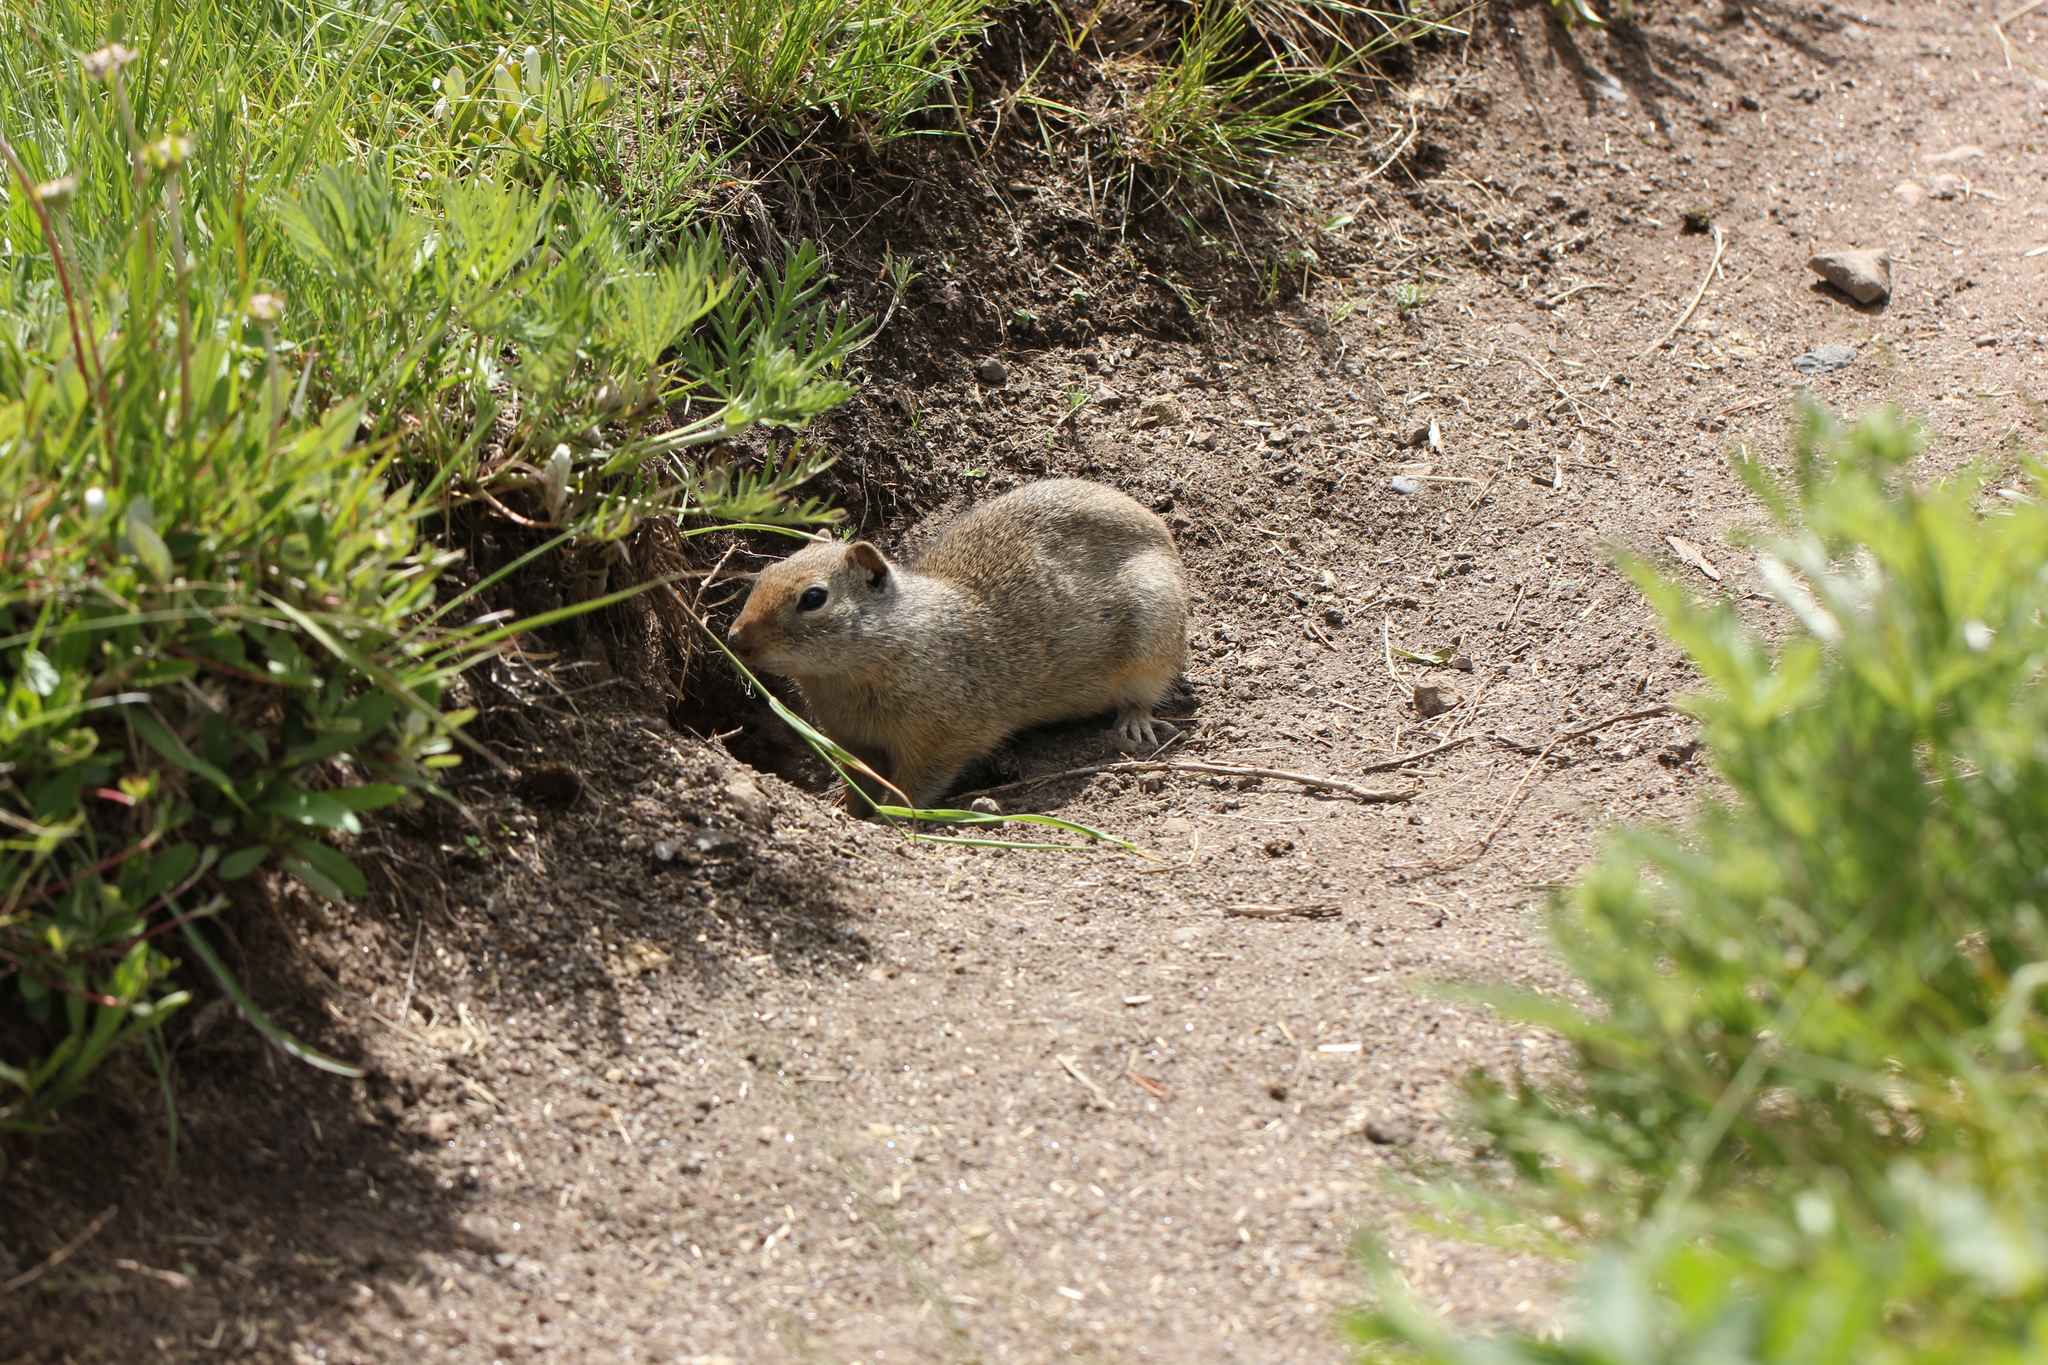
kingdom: Animalia
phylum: Chordata
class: Mammalia
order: Rodentia
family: Sciuridae
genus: Urocitellus
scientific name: Urocitellus armatus
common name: Uinta ground squirrel
